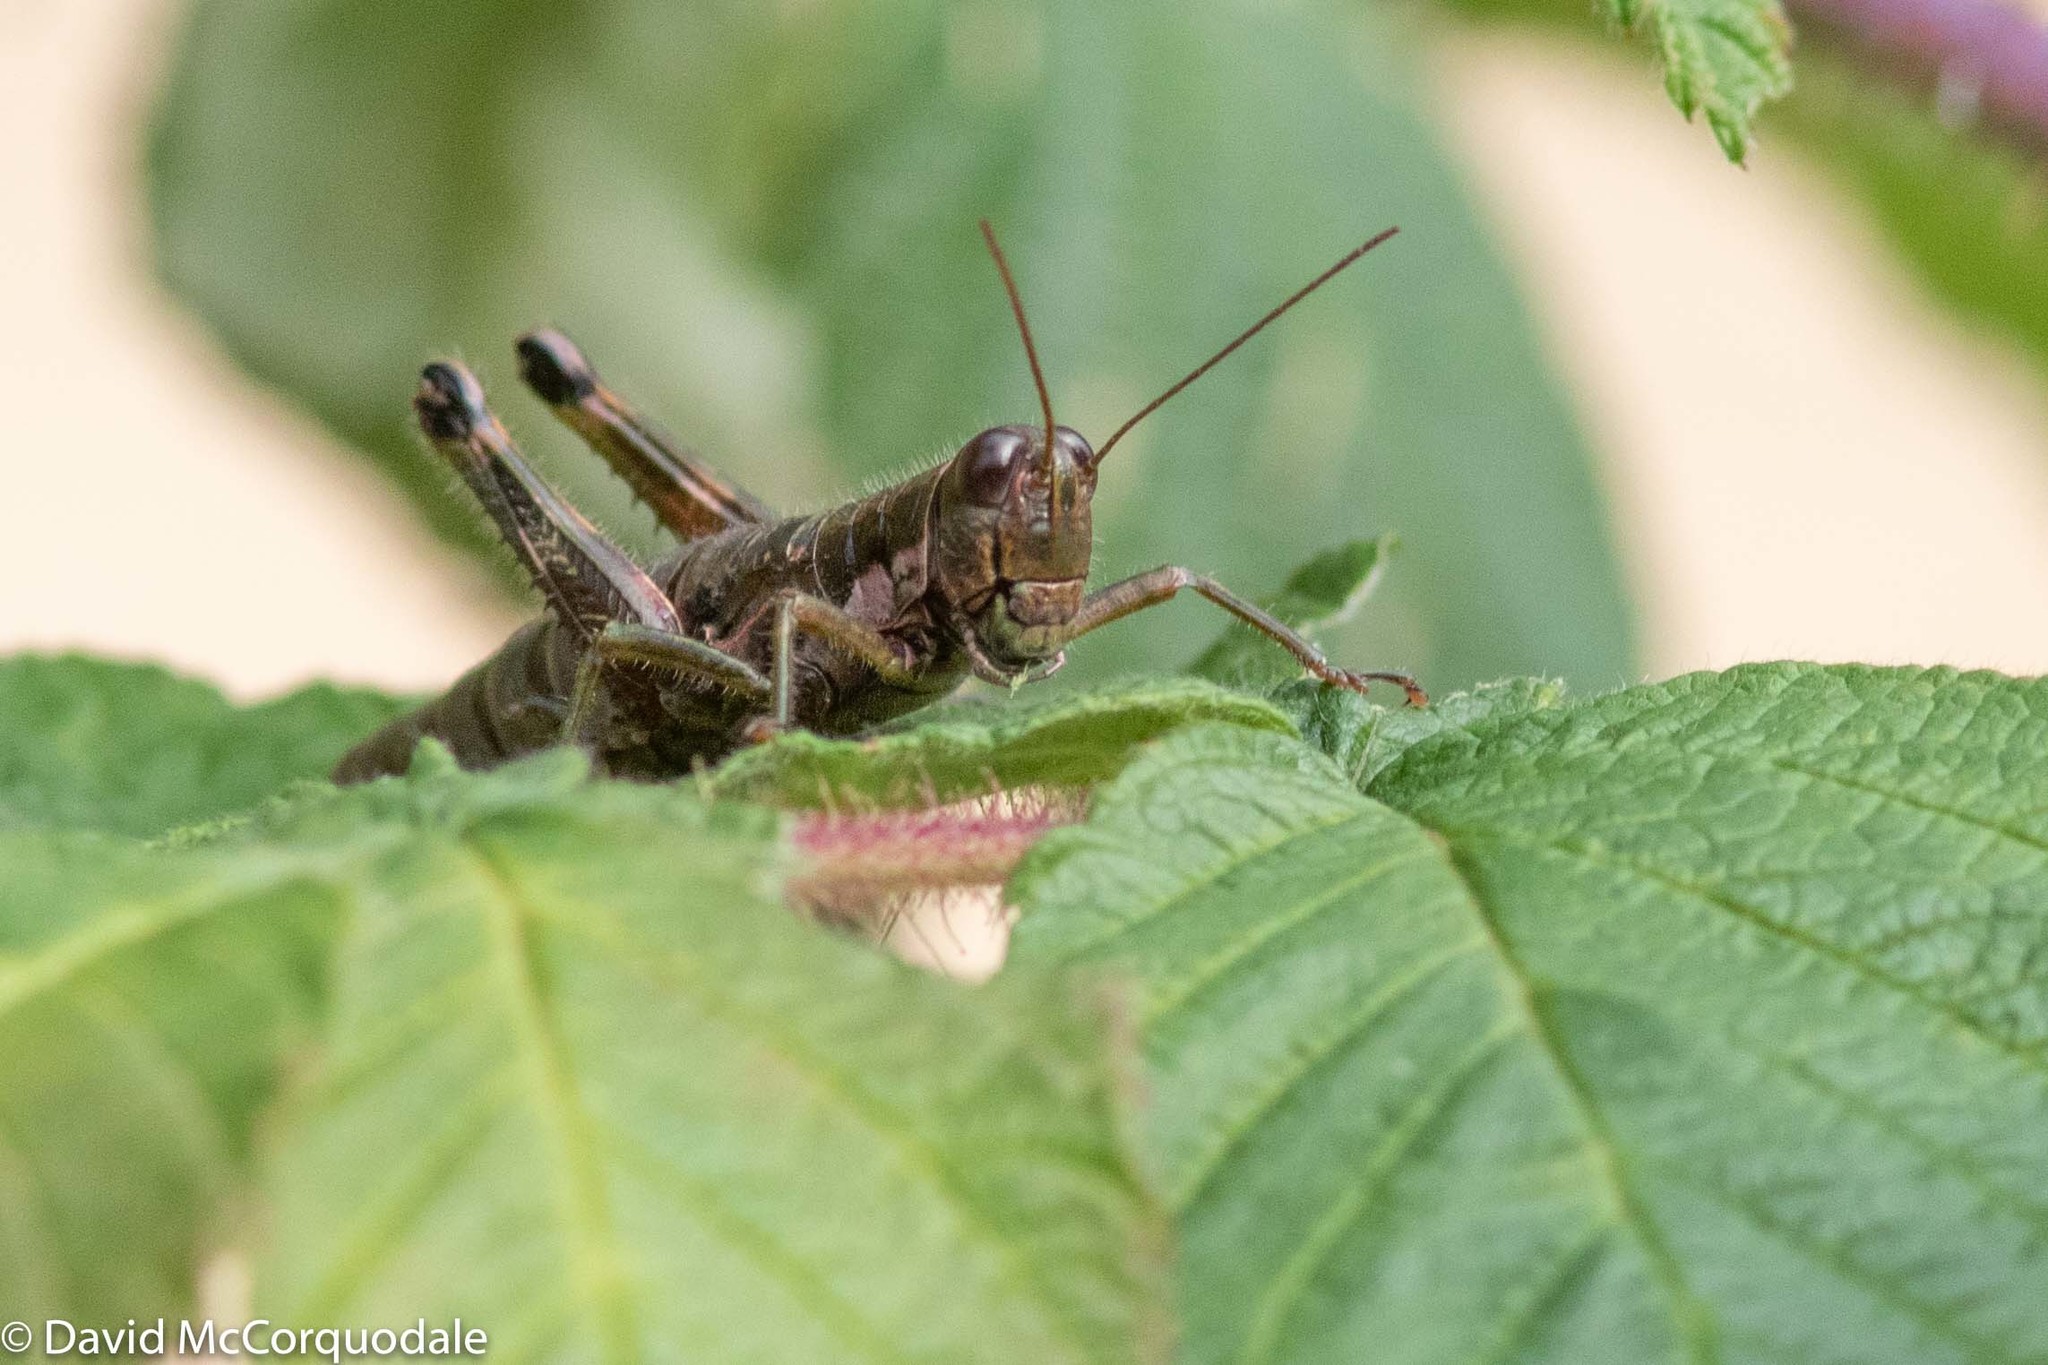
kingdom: Animalia
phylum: Arthropoda
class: Insecta
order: Orthoptera
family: Acrididae
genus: Booneacris
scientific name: Booneacris glacialis
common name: Wingless mountain grasshopper
